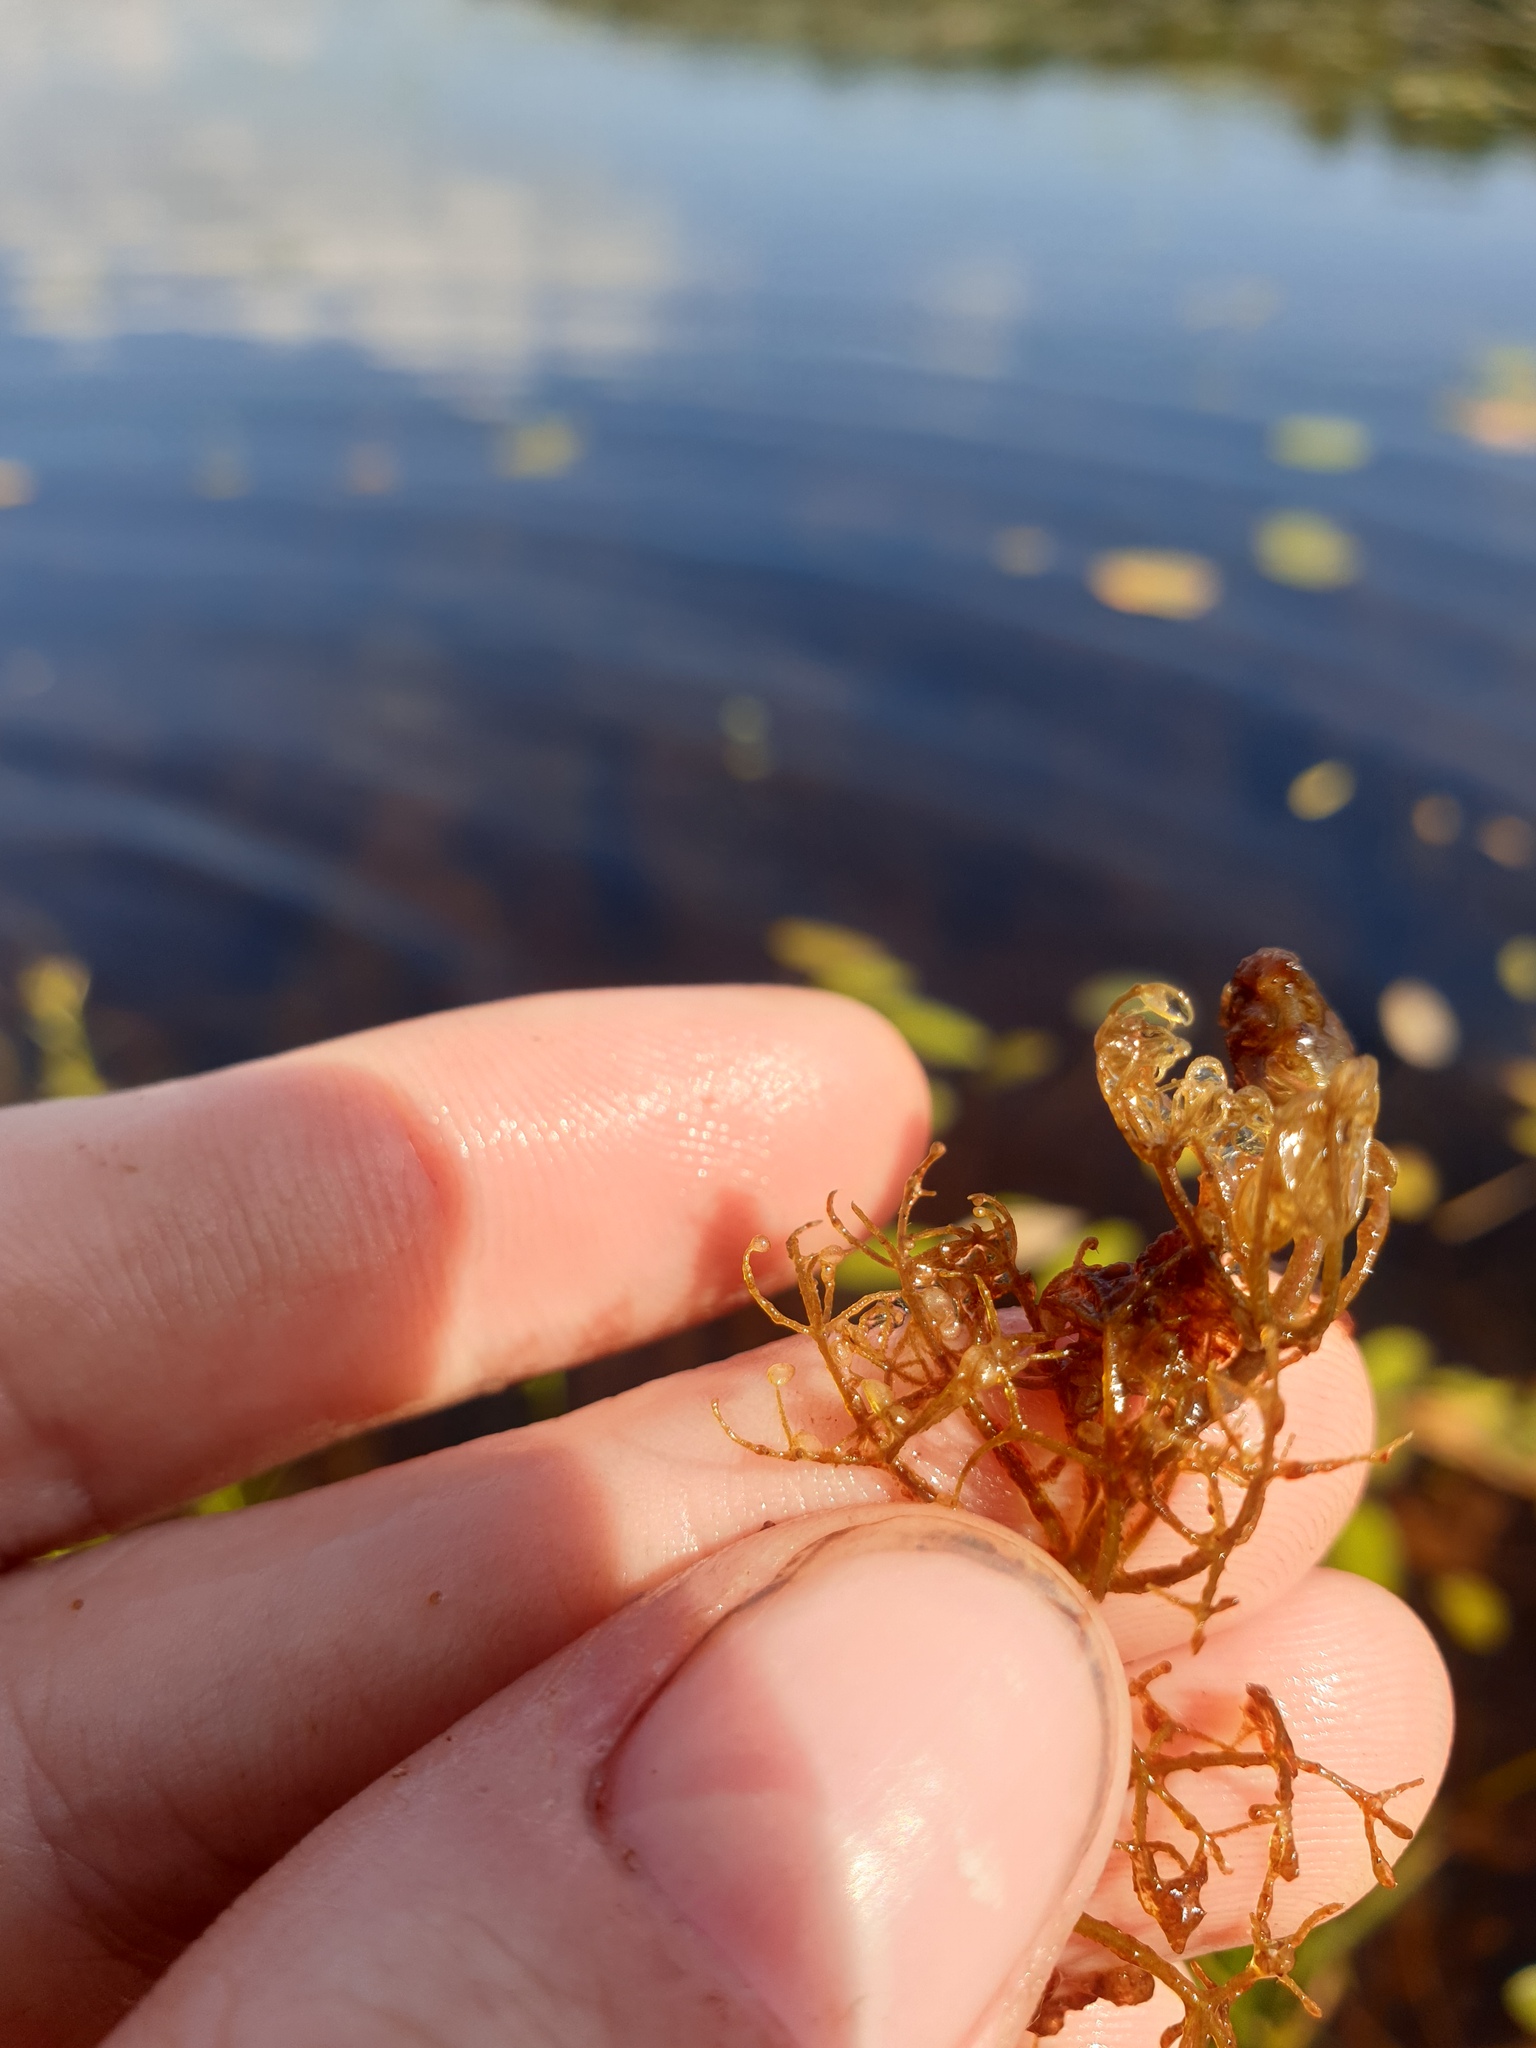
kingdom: Plantae
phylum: Tracheophyta
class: Magnoliopsida
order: Lamiales
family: Lentibulariaceae
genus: Utricularia
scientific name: Utricularia purpurea
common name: Eastern purple bladderwort
